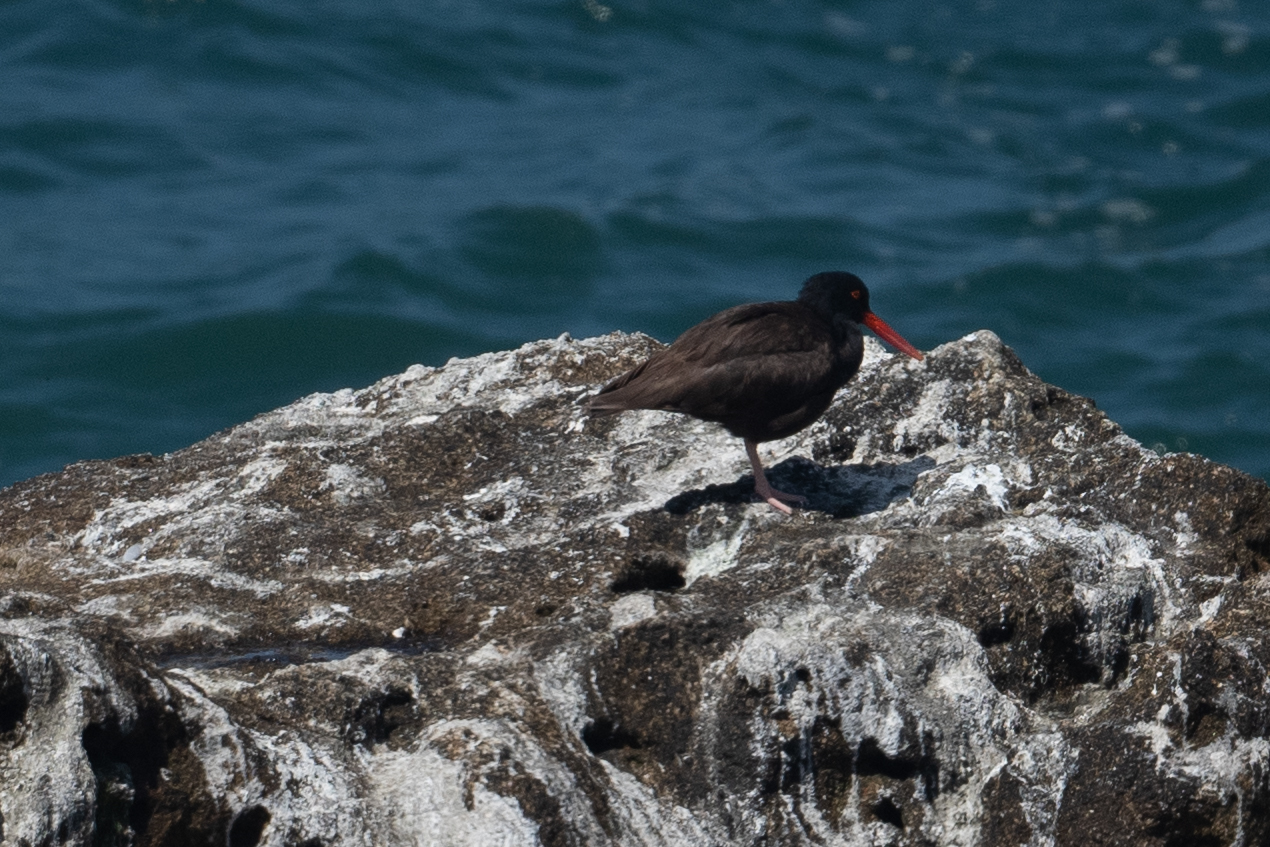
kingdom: Animalia
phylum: Chordata
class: Aves
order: Charadriiformes
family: Haematopodidae
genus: Haematopus
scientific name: Haematopus bachmani
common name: Black oystercatcher
